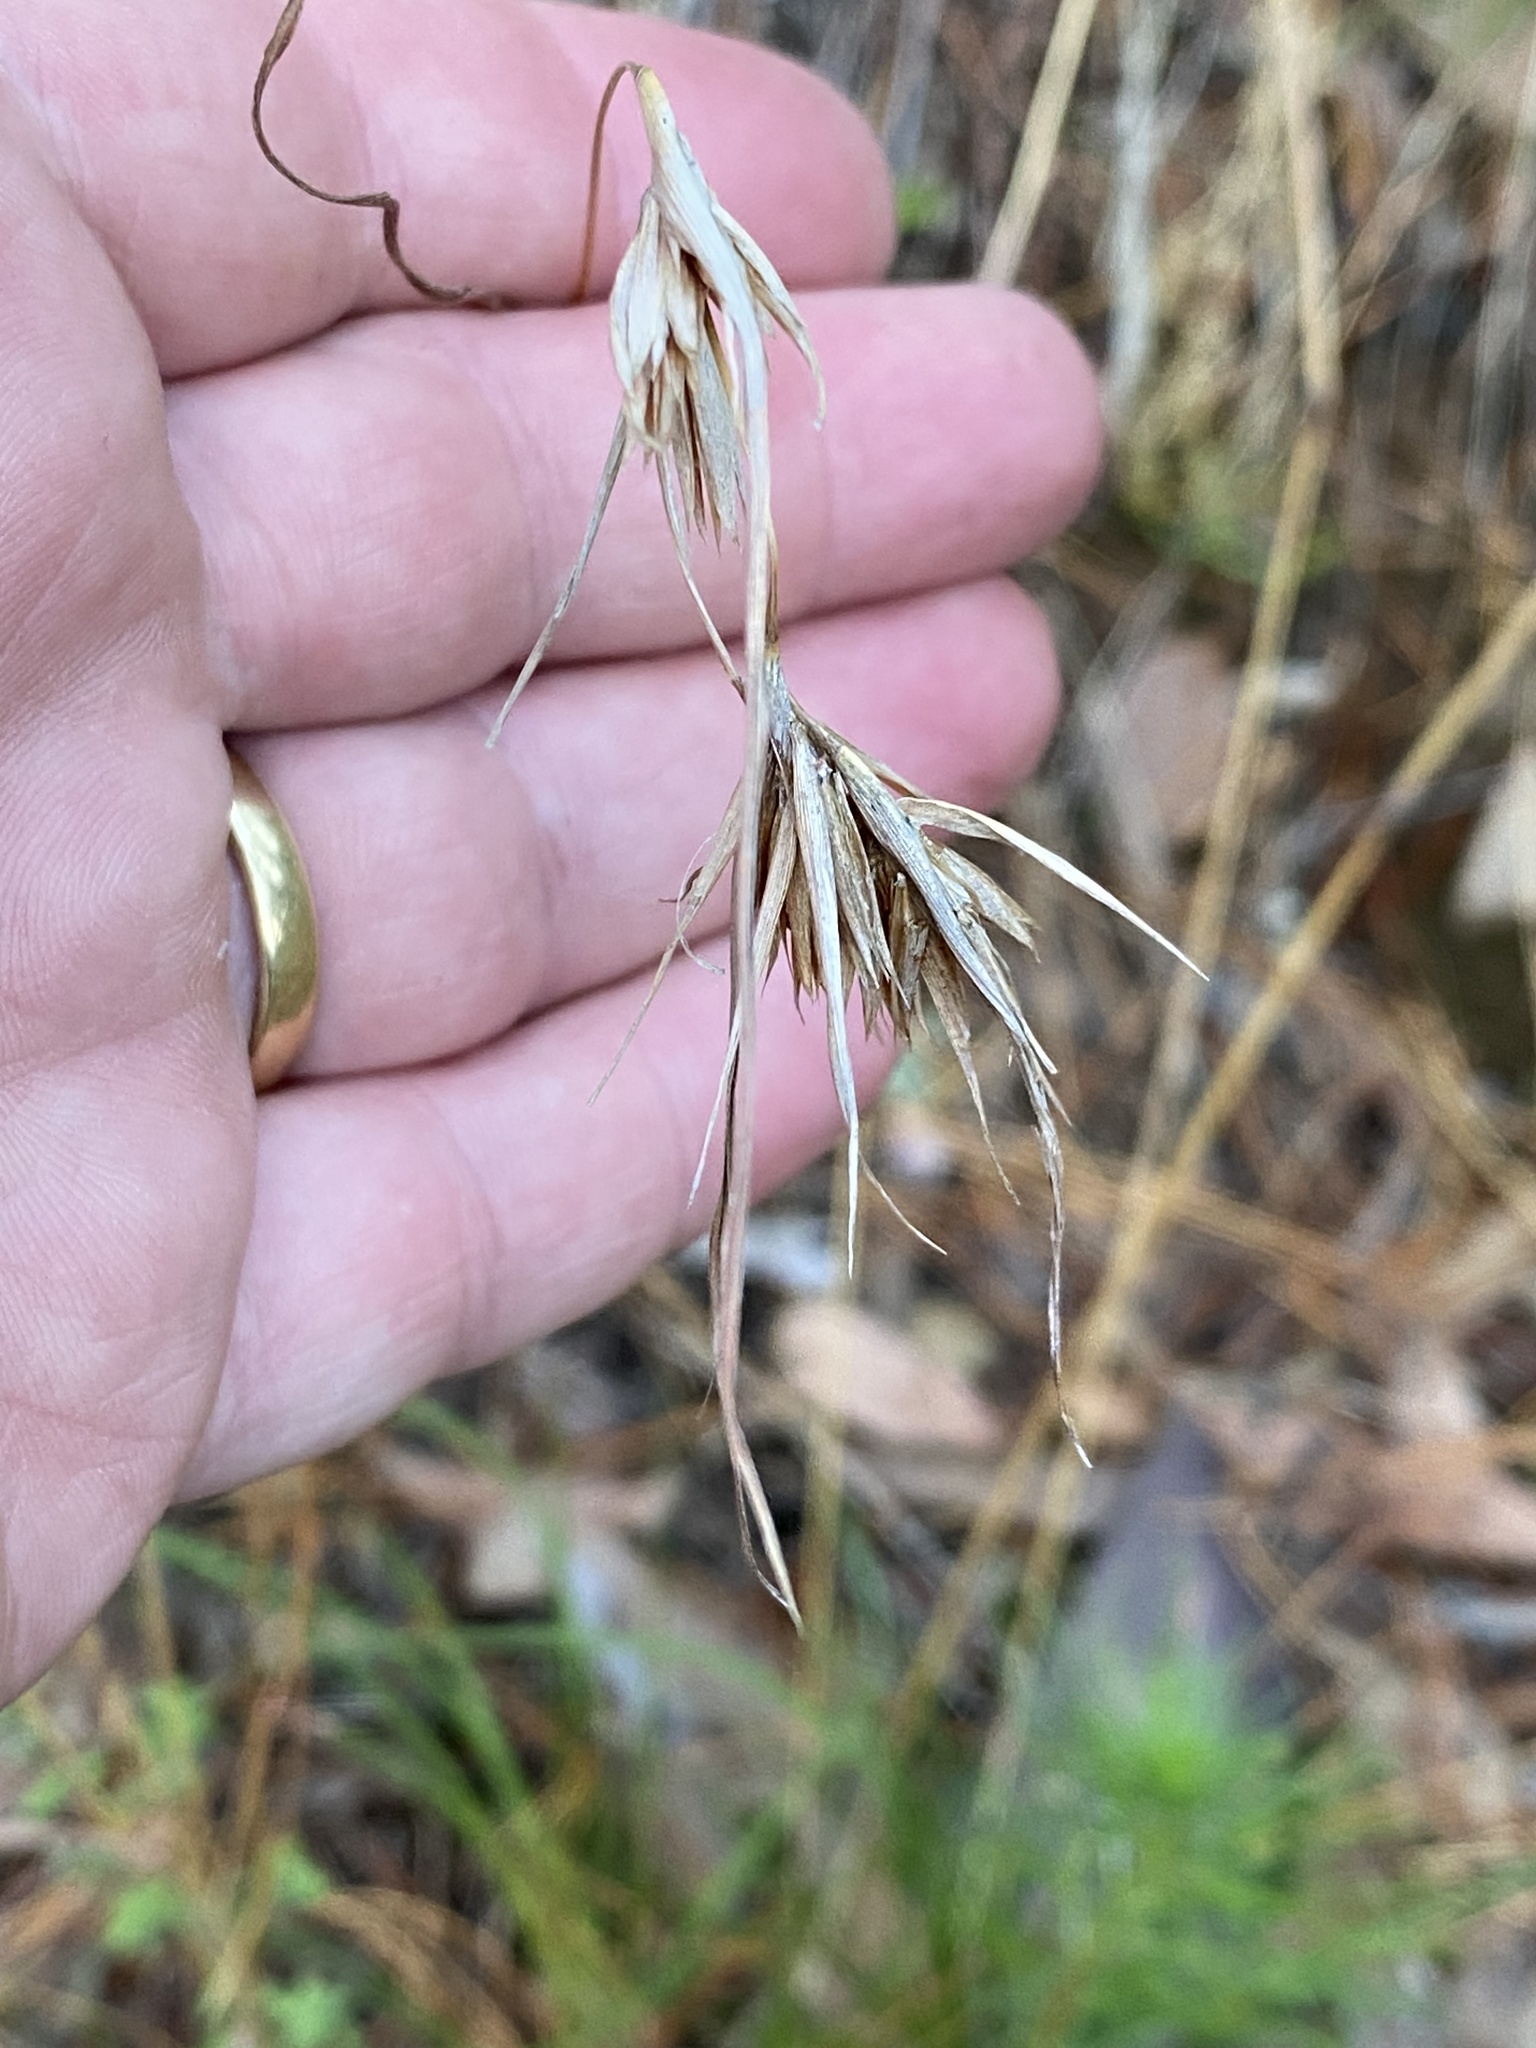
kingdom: Plantae
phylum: Tracheophyta
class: Liliopsida
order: Poales
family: Poaceae
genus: Themeda
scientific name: Themeda triandra
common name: Kangaroo grass
